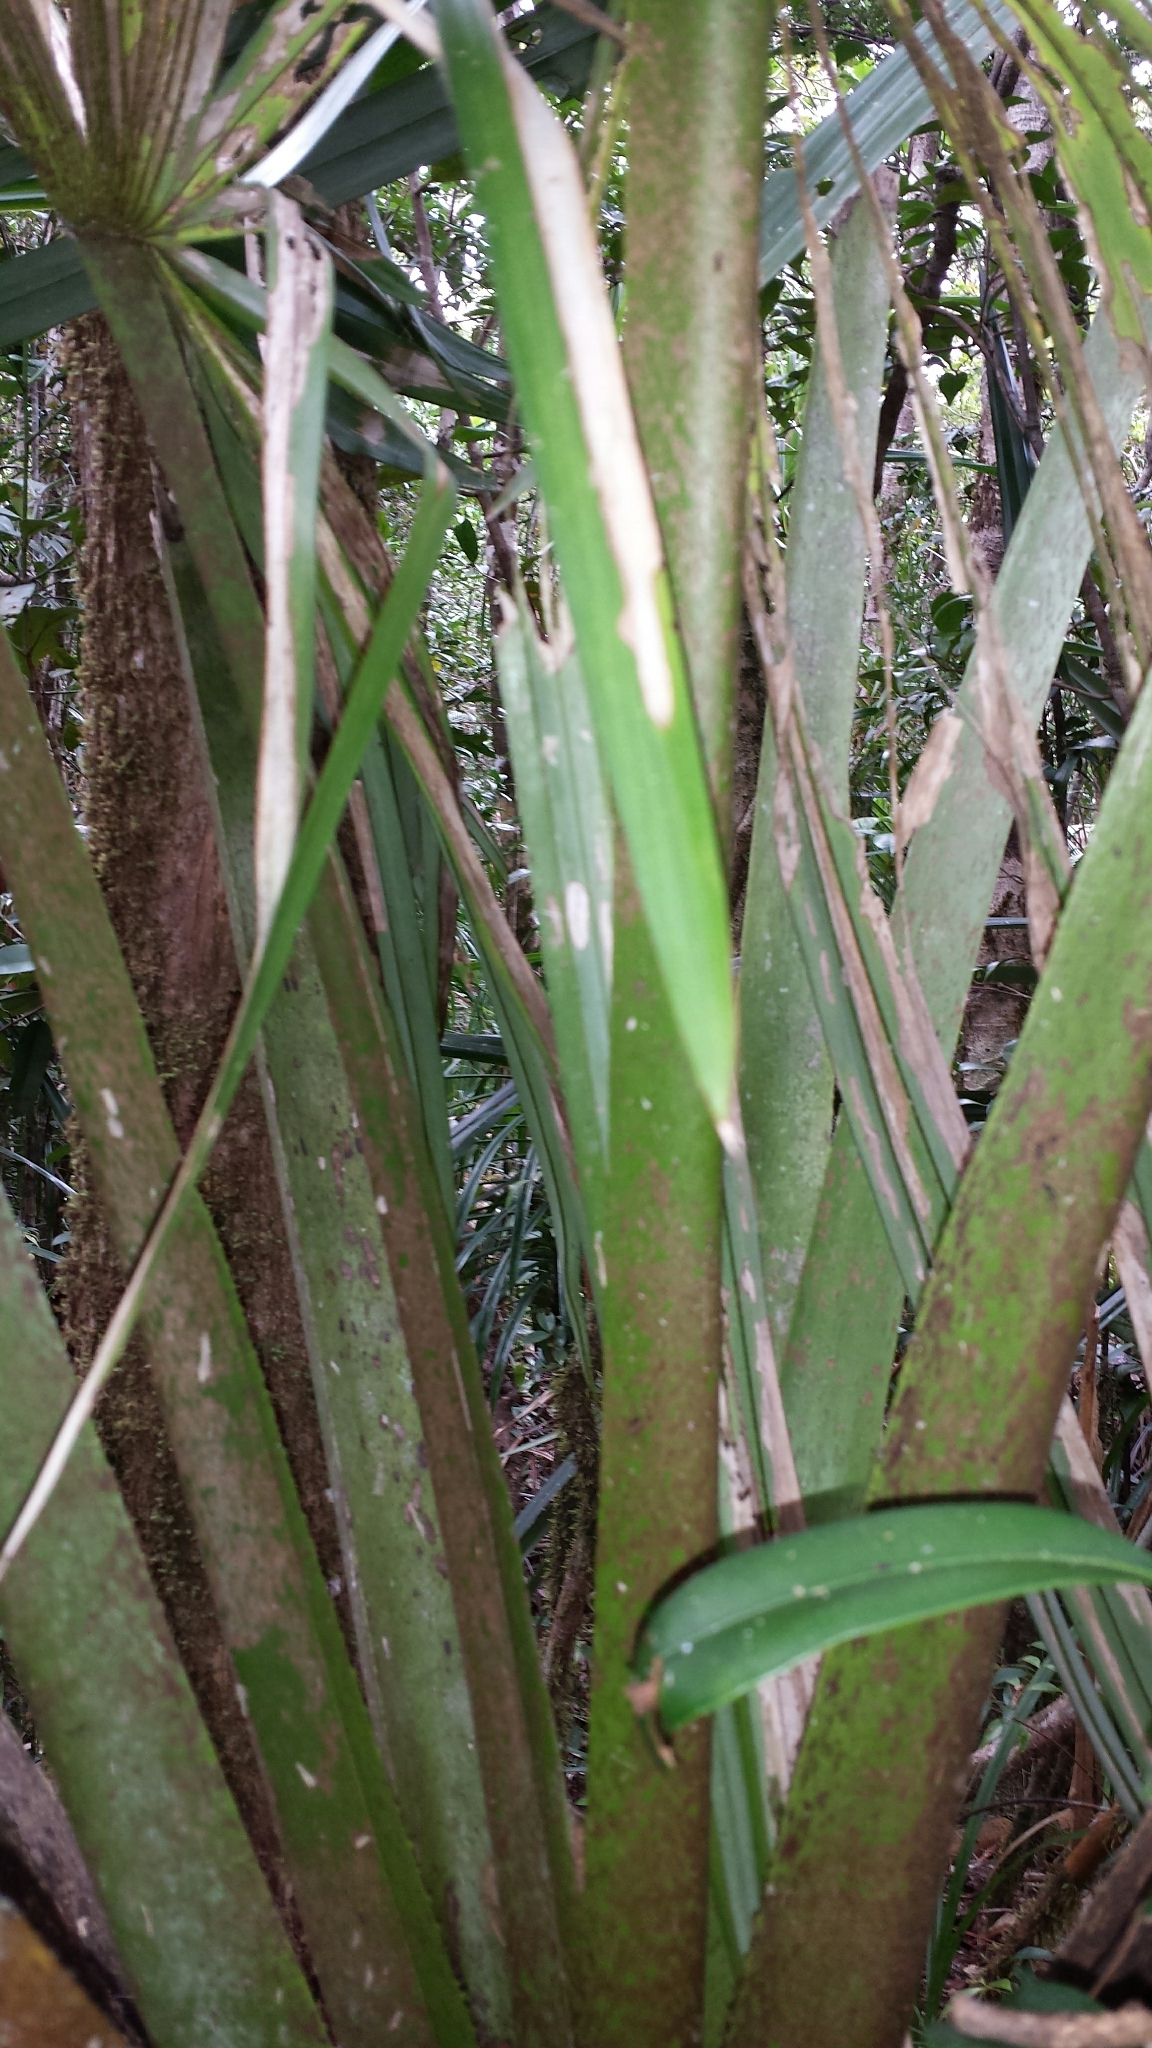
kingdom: Plantae
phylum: Tracheophyta
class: Liliopsida
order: Arecales
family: Arecaceae
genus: Satranala
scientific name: Satranala decussilvae
